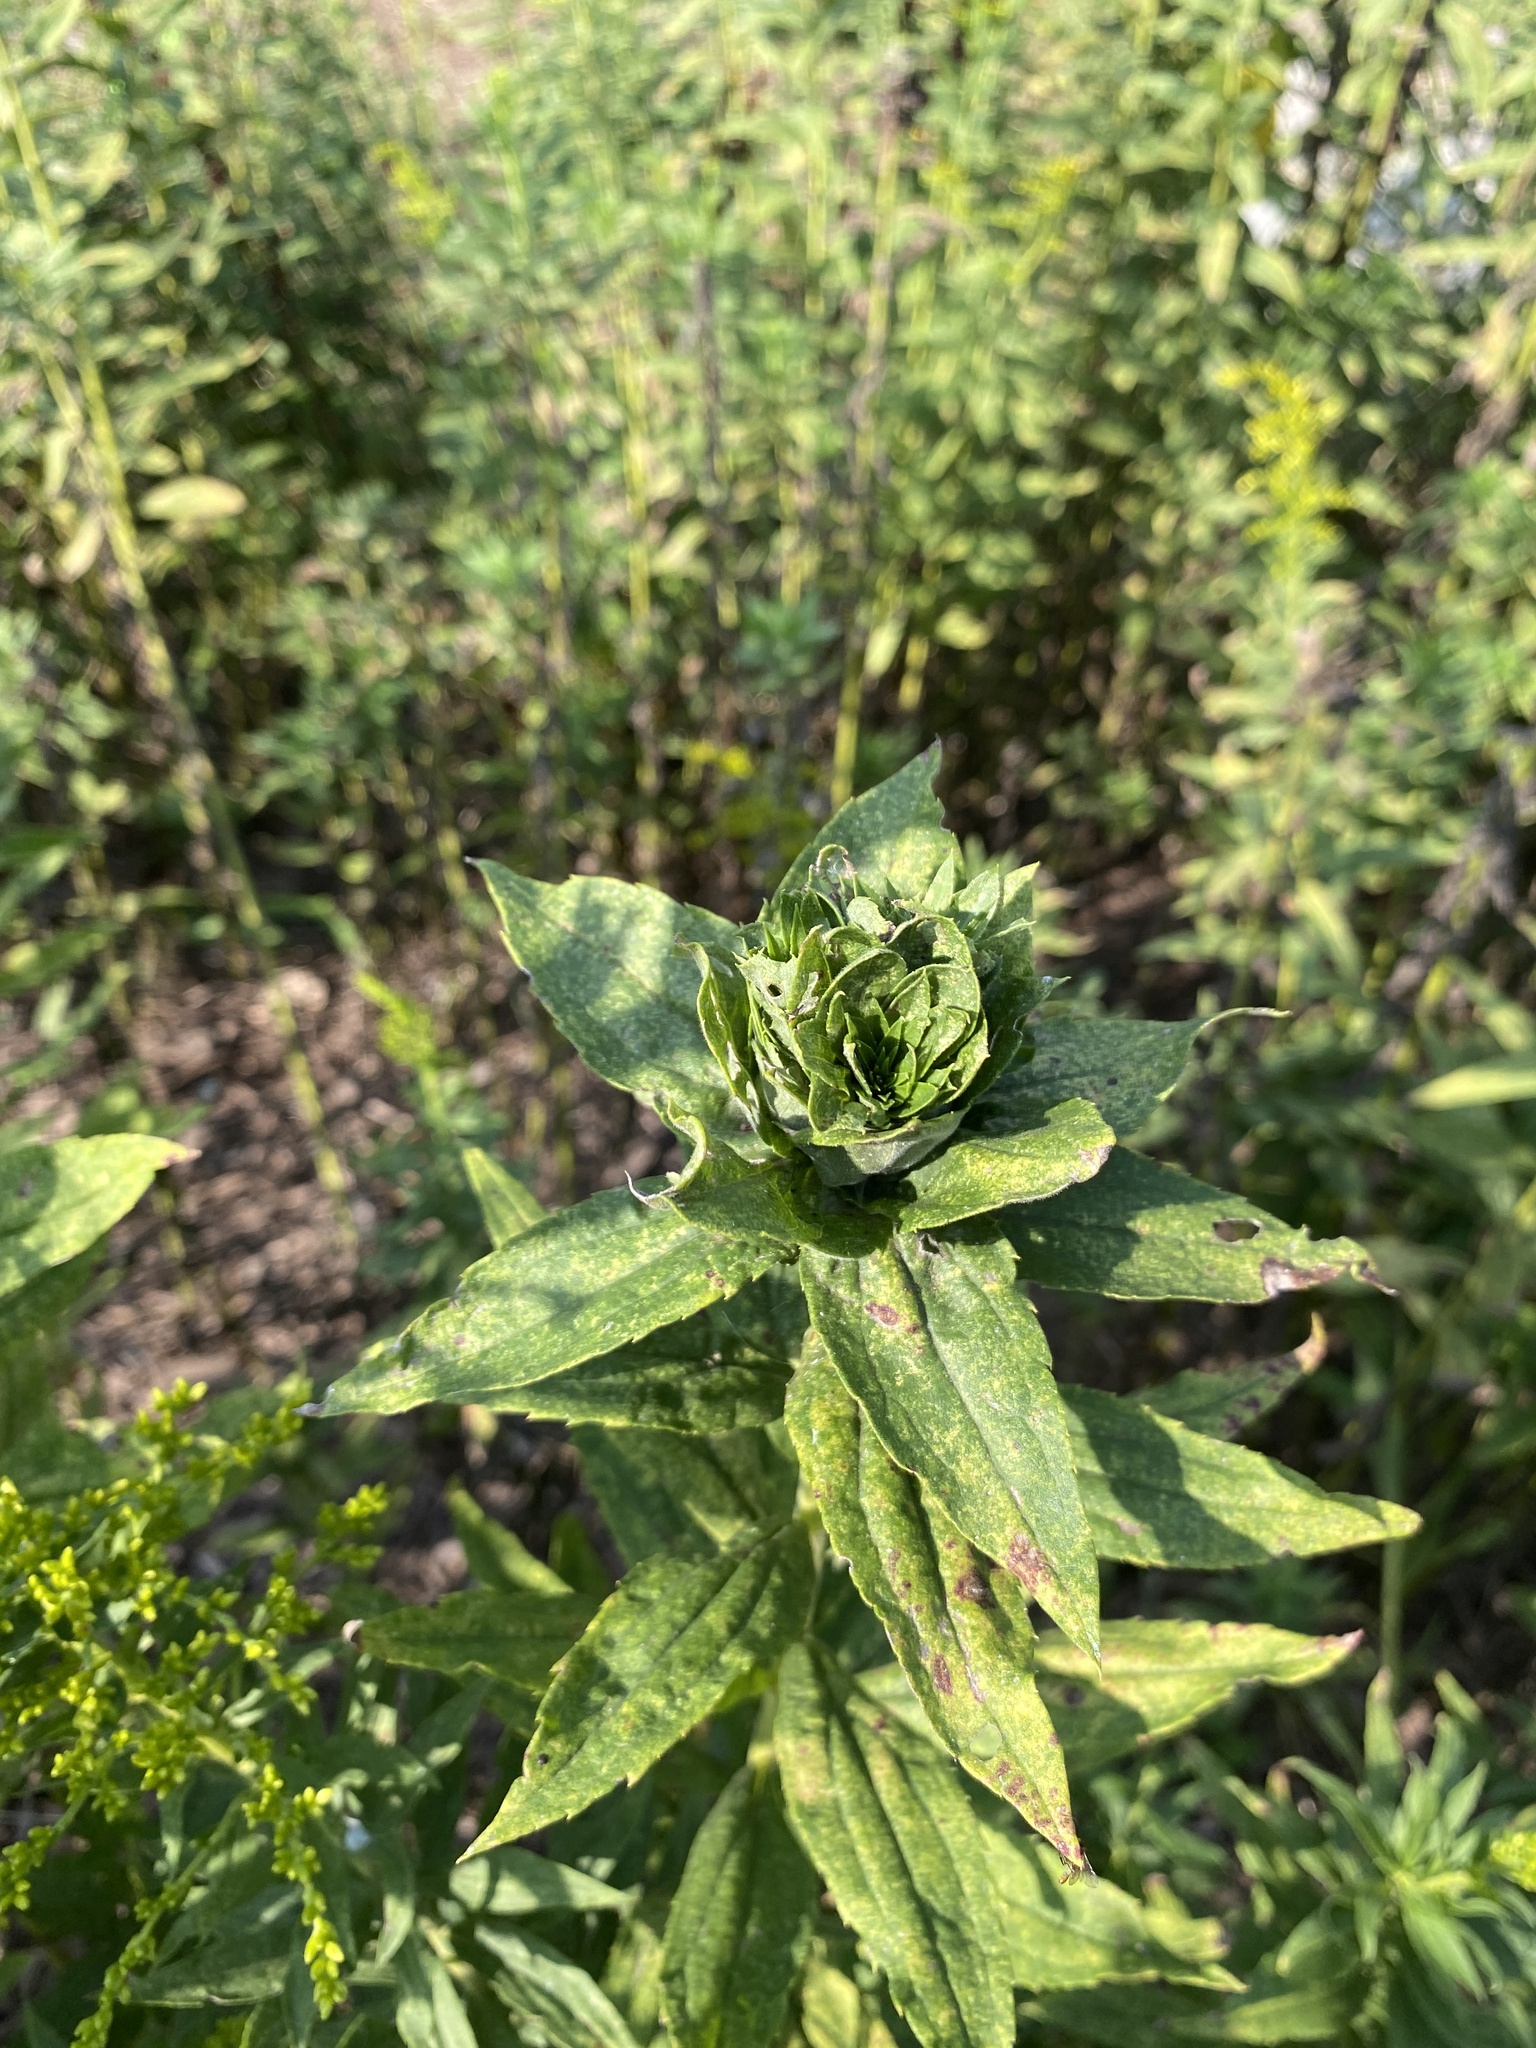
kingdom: Animalia
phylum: Arthropoda
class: Insecta
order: Diptera
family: Cecidomyiidae
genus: Rhopalomyia
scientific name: Rhopalomyia solidaginis
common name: Goldenrod bunch gall midge
